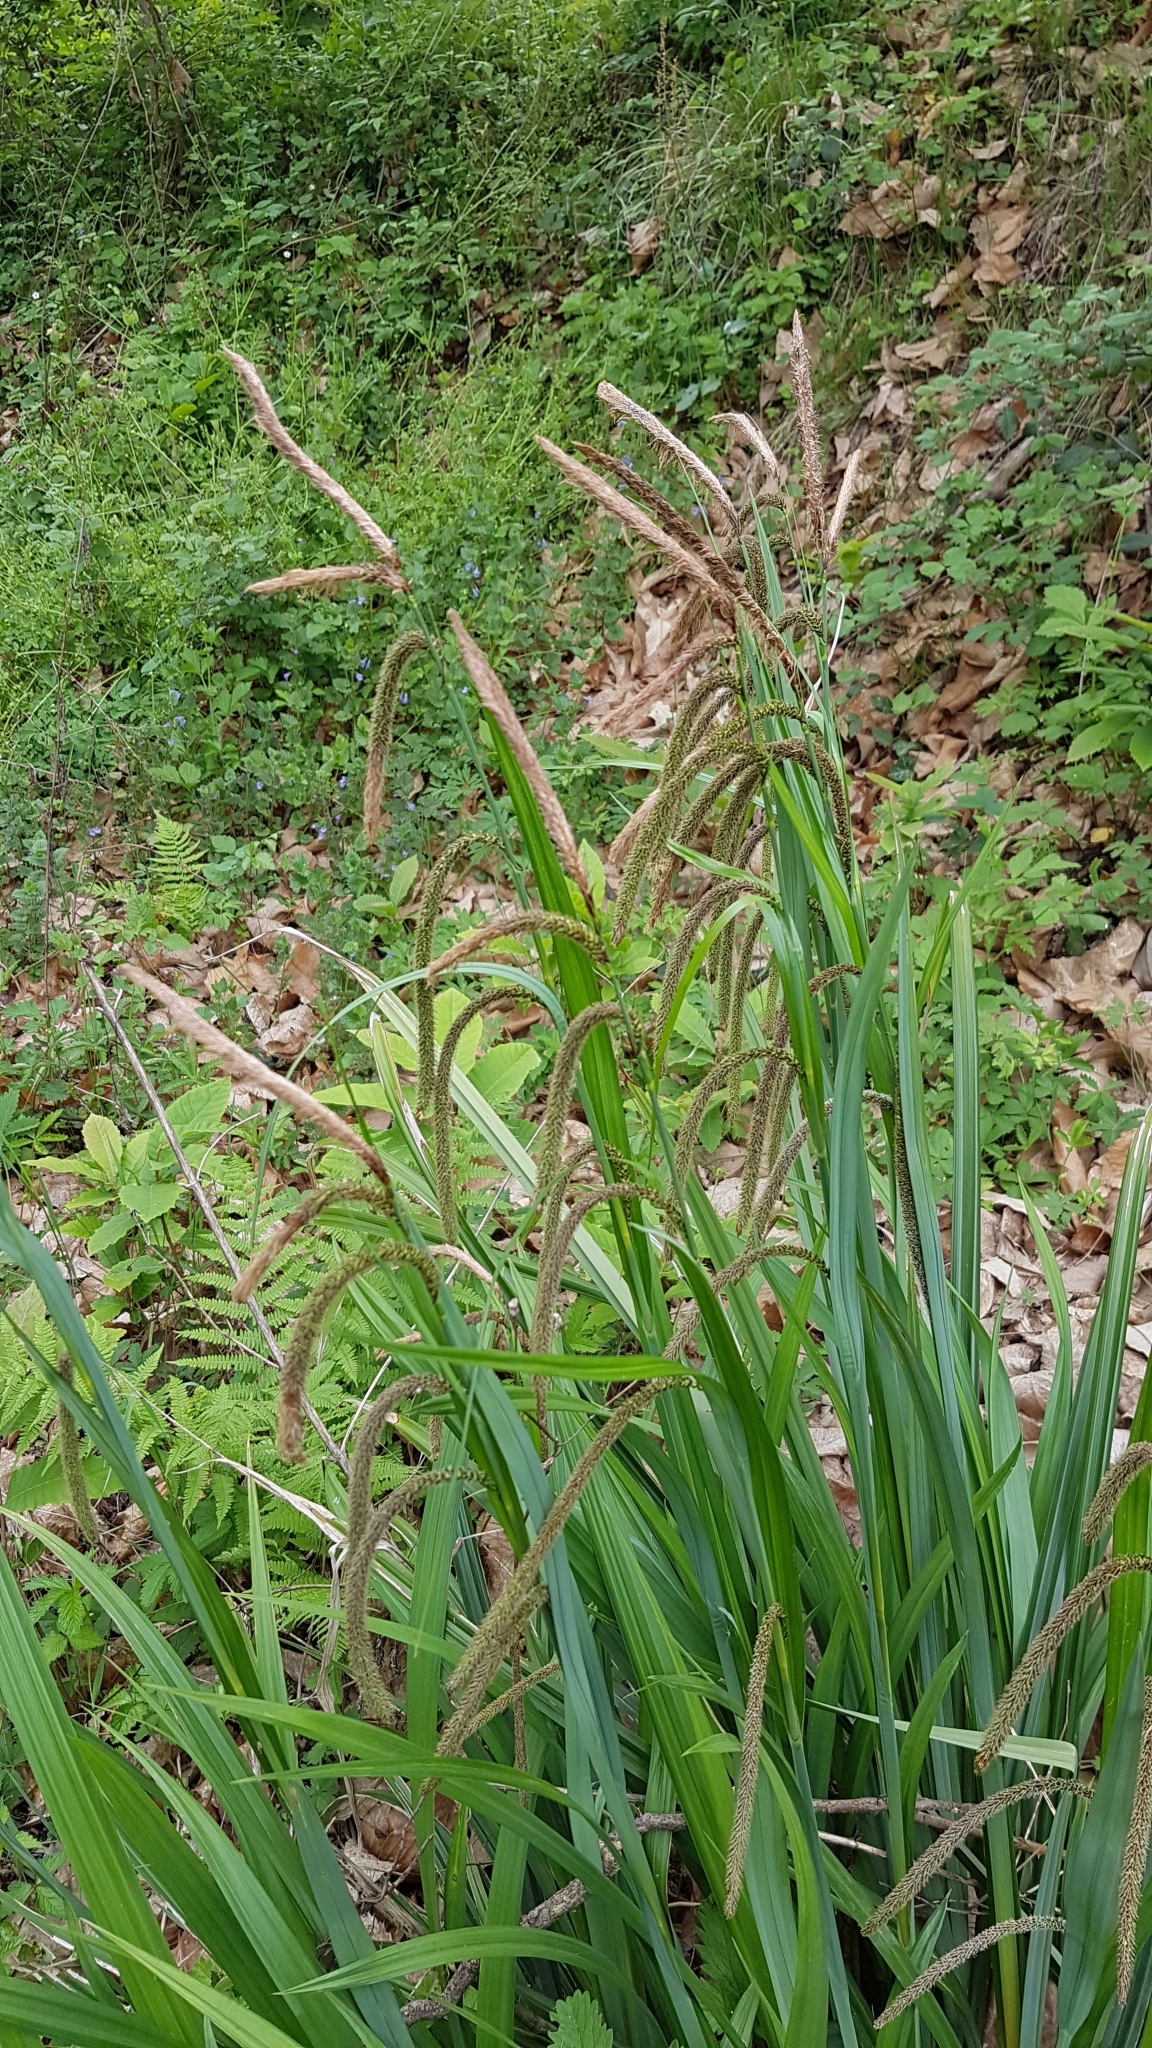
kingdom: Plantae
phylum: Tracheophyta
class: Liliopsida
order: Poales
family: Cyperaceae
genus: Carex
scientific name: Carex pendula
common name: Pendulous sedge
